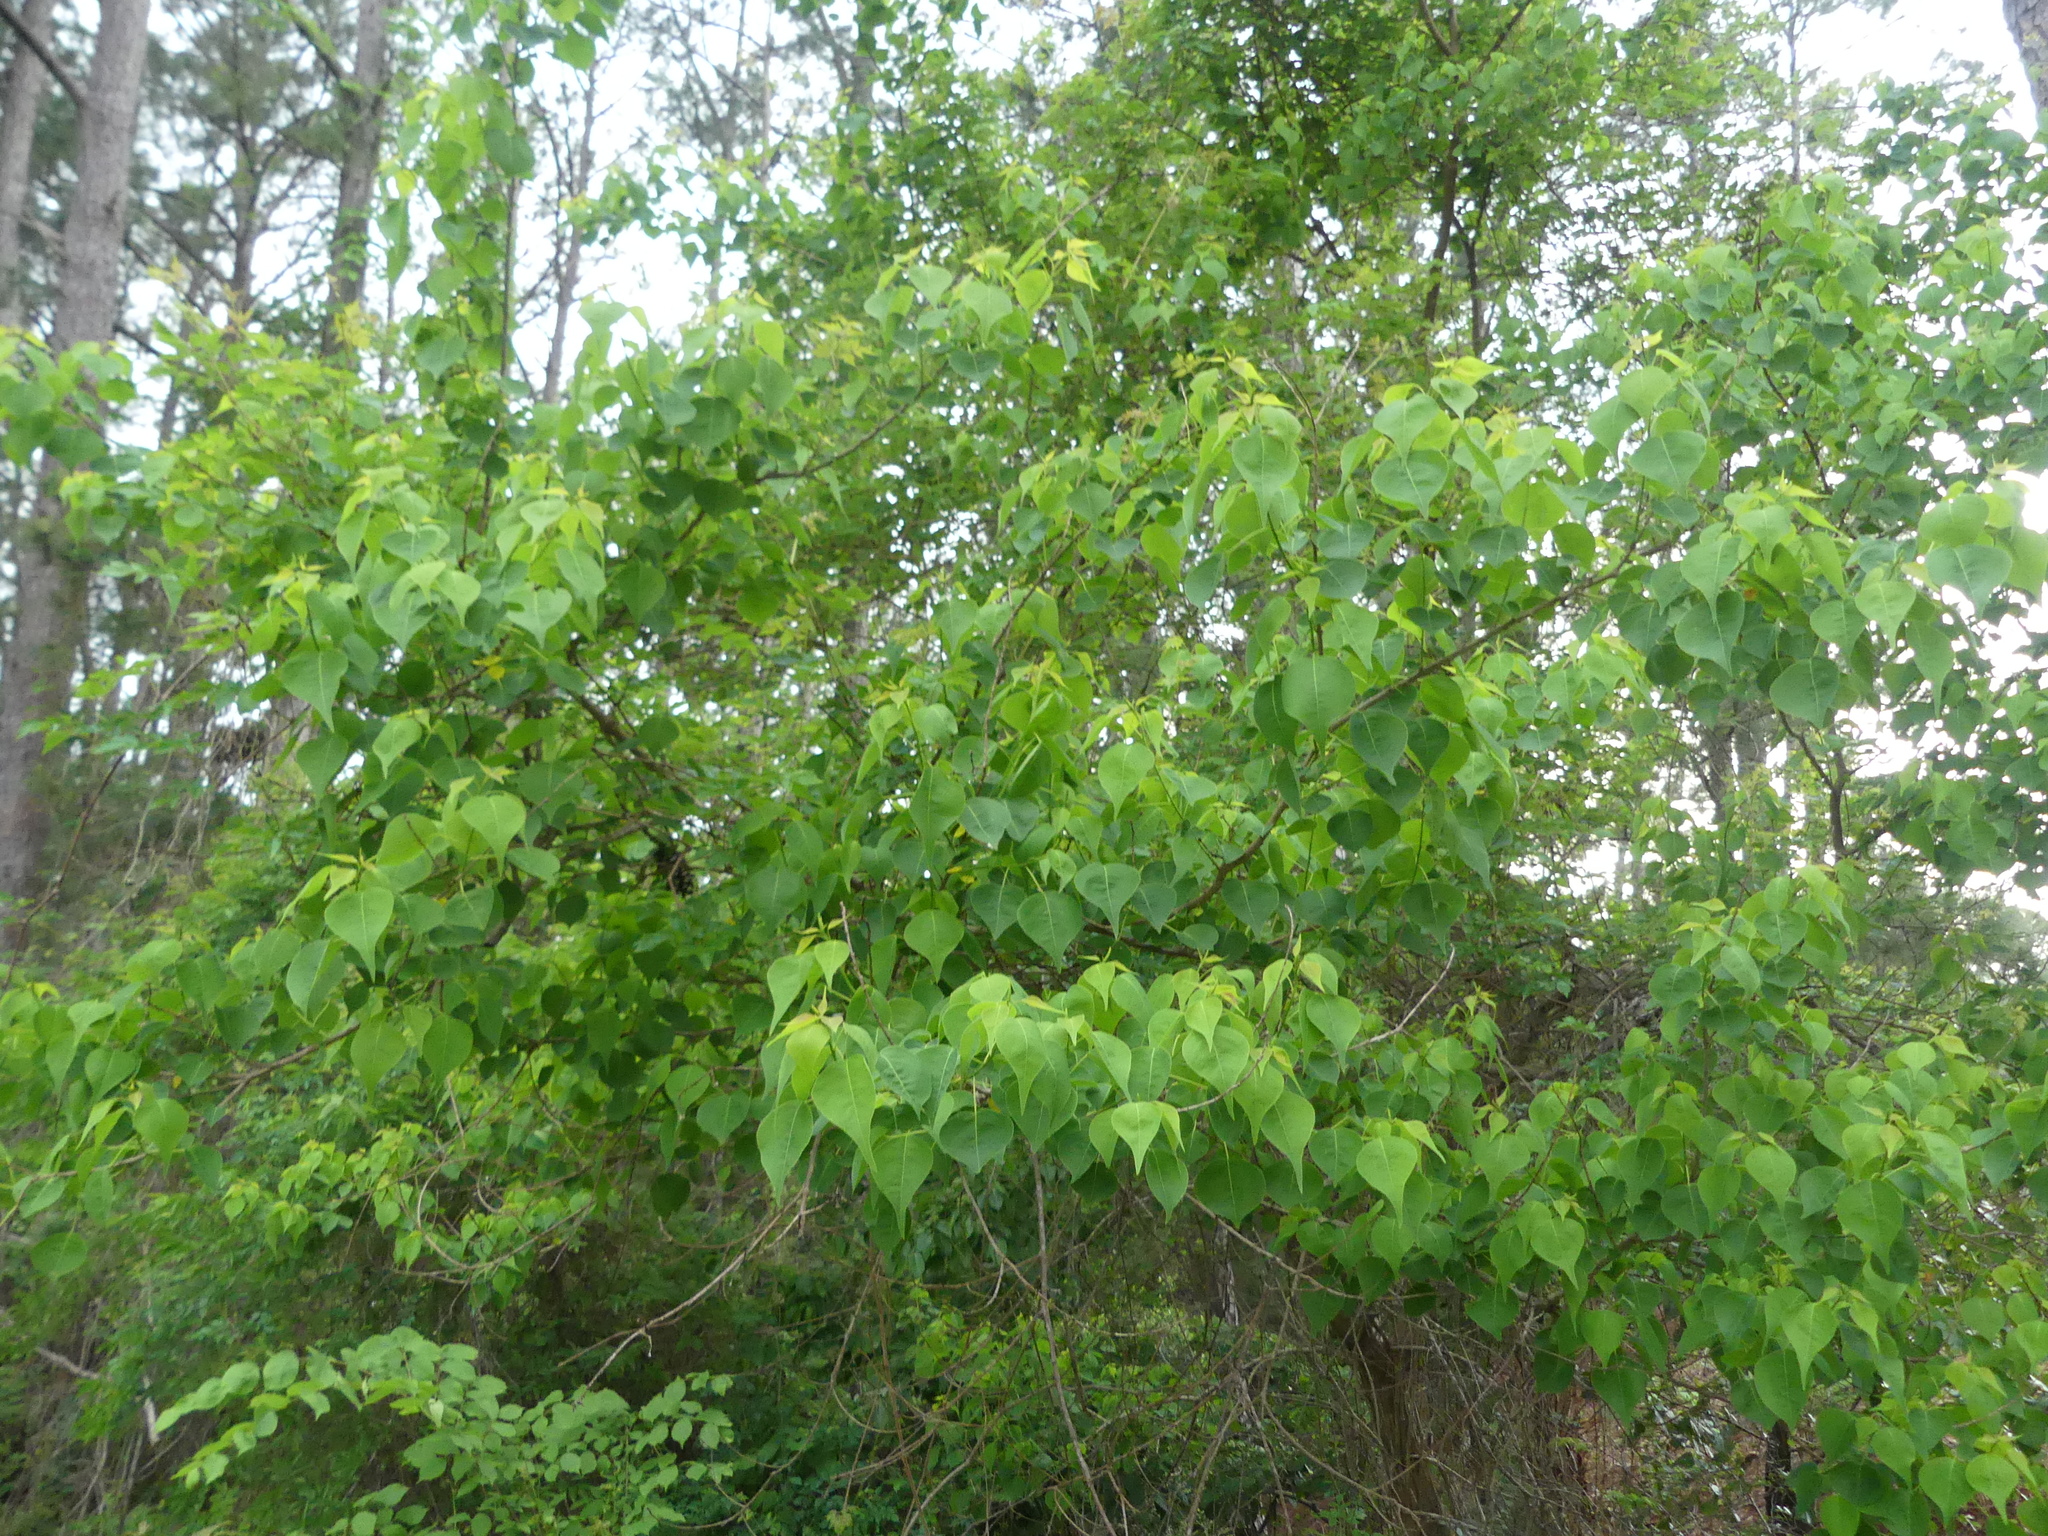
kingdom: Plantae
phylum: Tracheophyta
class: Magnoliopsida
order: Malpighiales
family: Euphorbiaceae
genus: Triadica
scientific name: Triadica sebifera
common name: Chinese tallow
